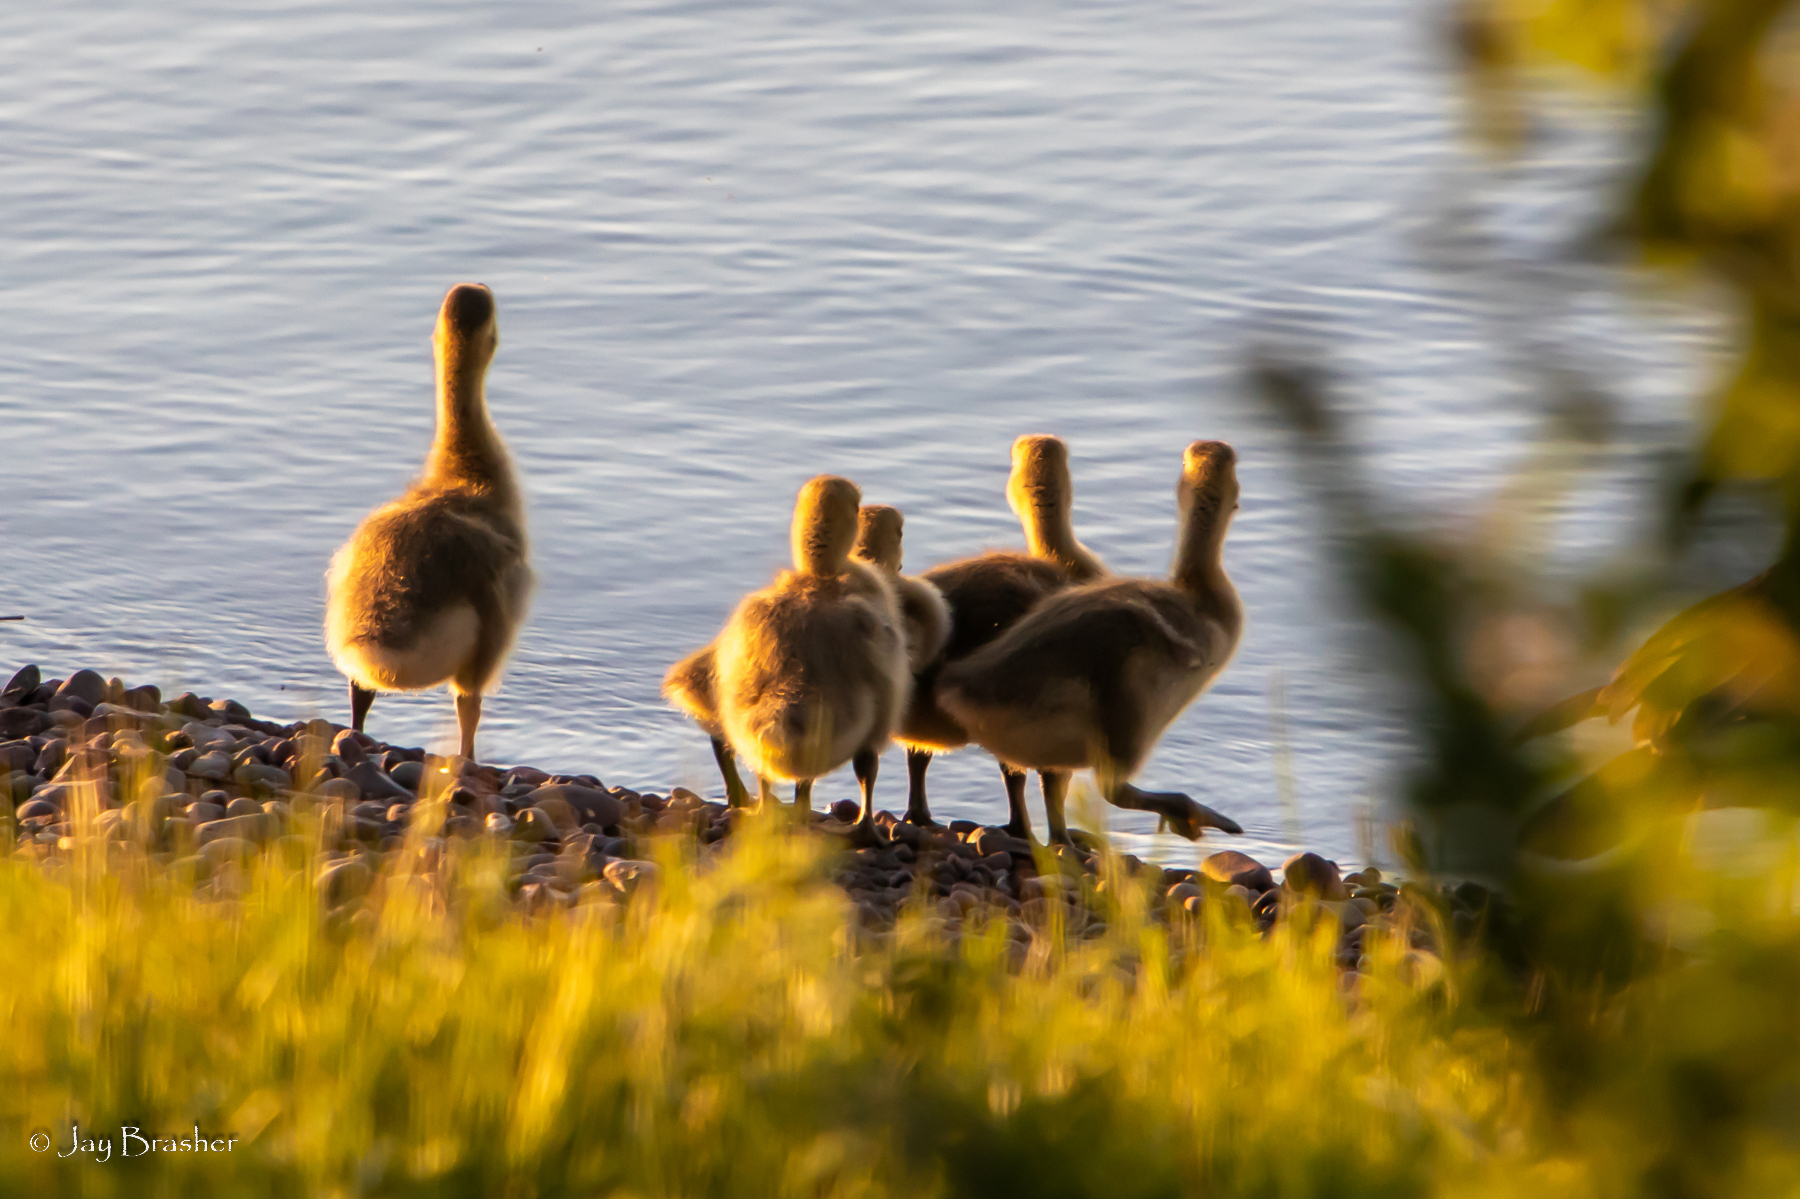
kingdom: Animalia
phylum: Chordata
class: Aves
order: Anseriformes
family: Anatidae
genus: Branta
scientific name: Branta canadensis
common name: Canada goose
